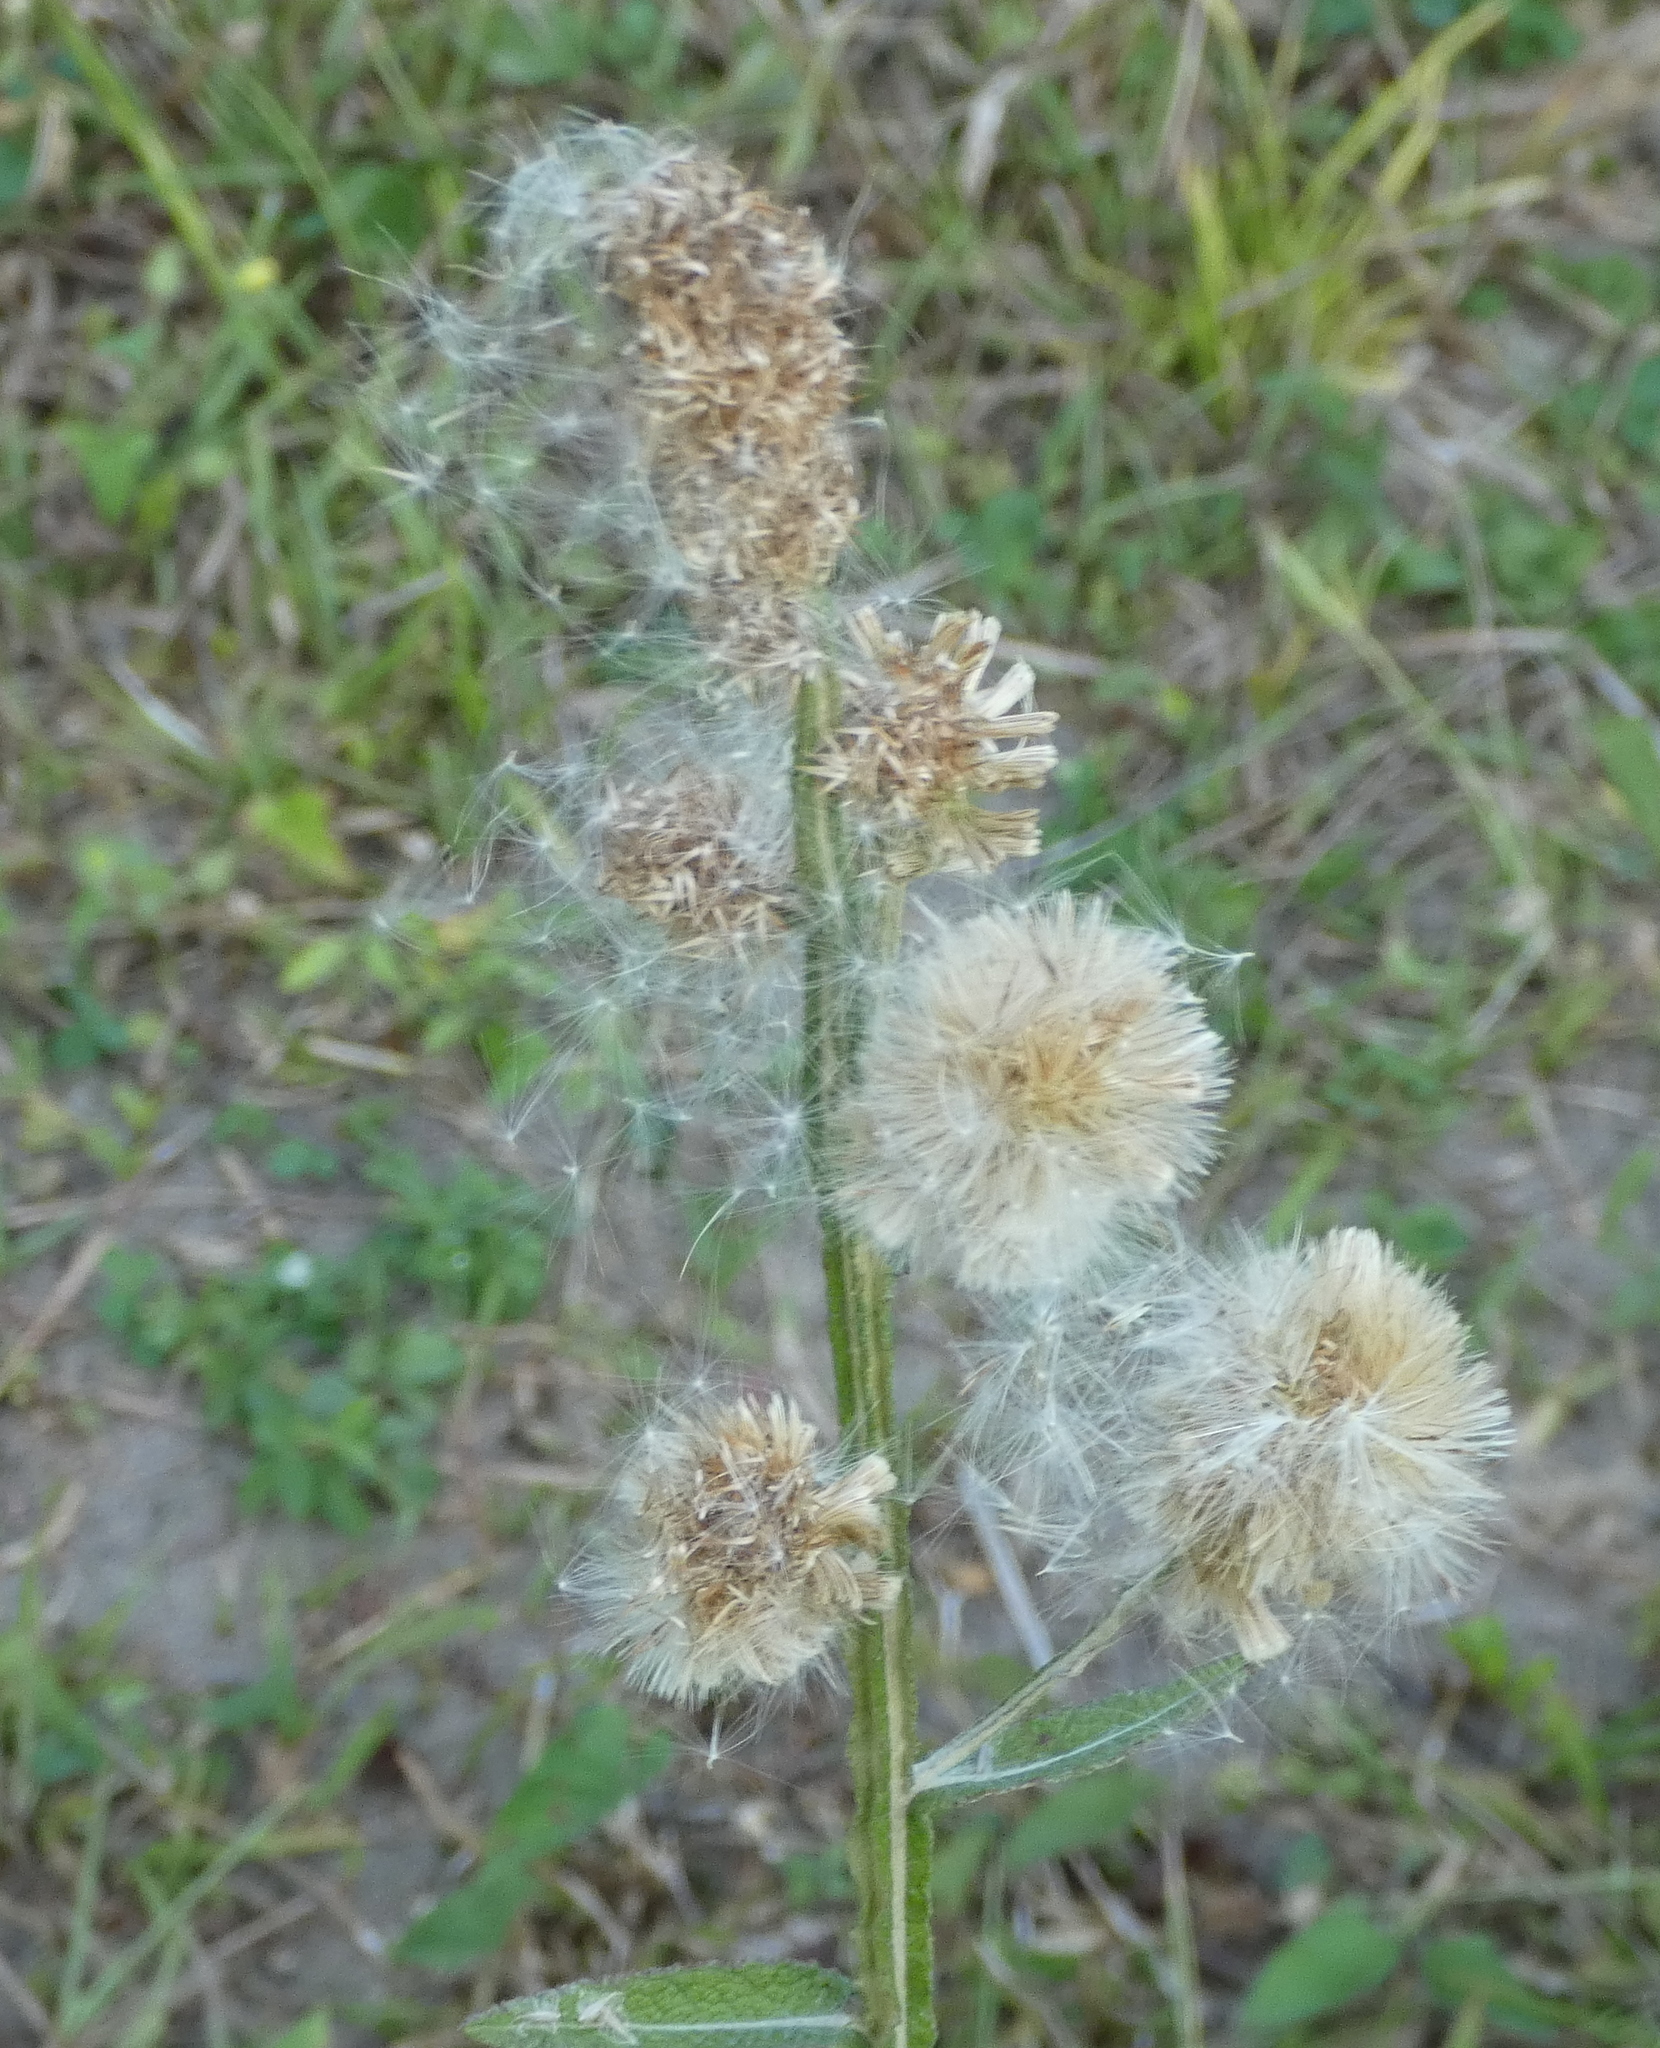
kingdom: Plantae
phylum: Tracheophyta
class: Magnoliopsida
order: Asterales
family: Asteraceae
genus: Pterocaulon
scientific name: Pterocaulon alopecuroides
